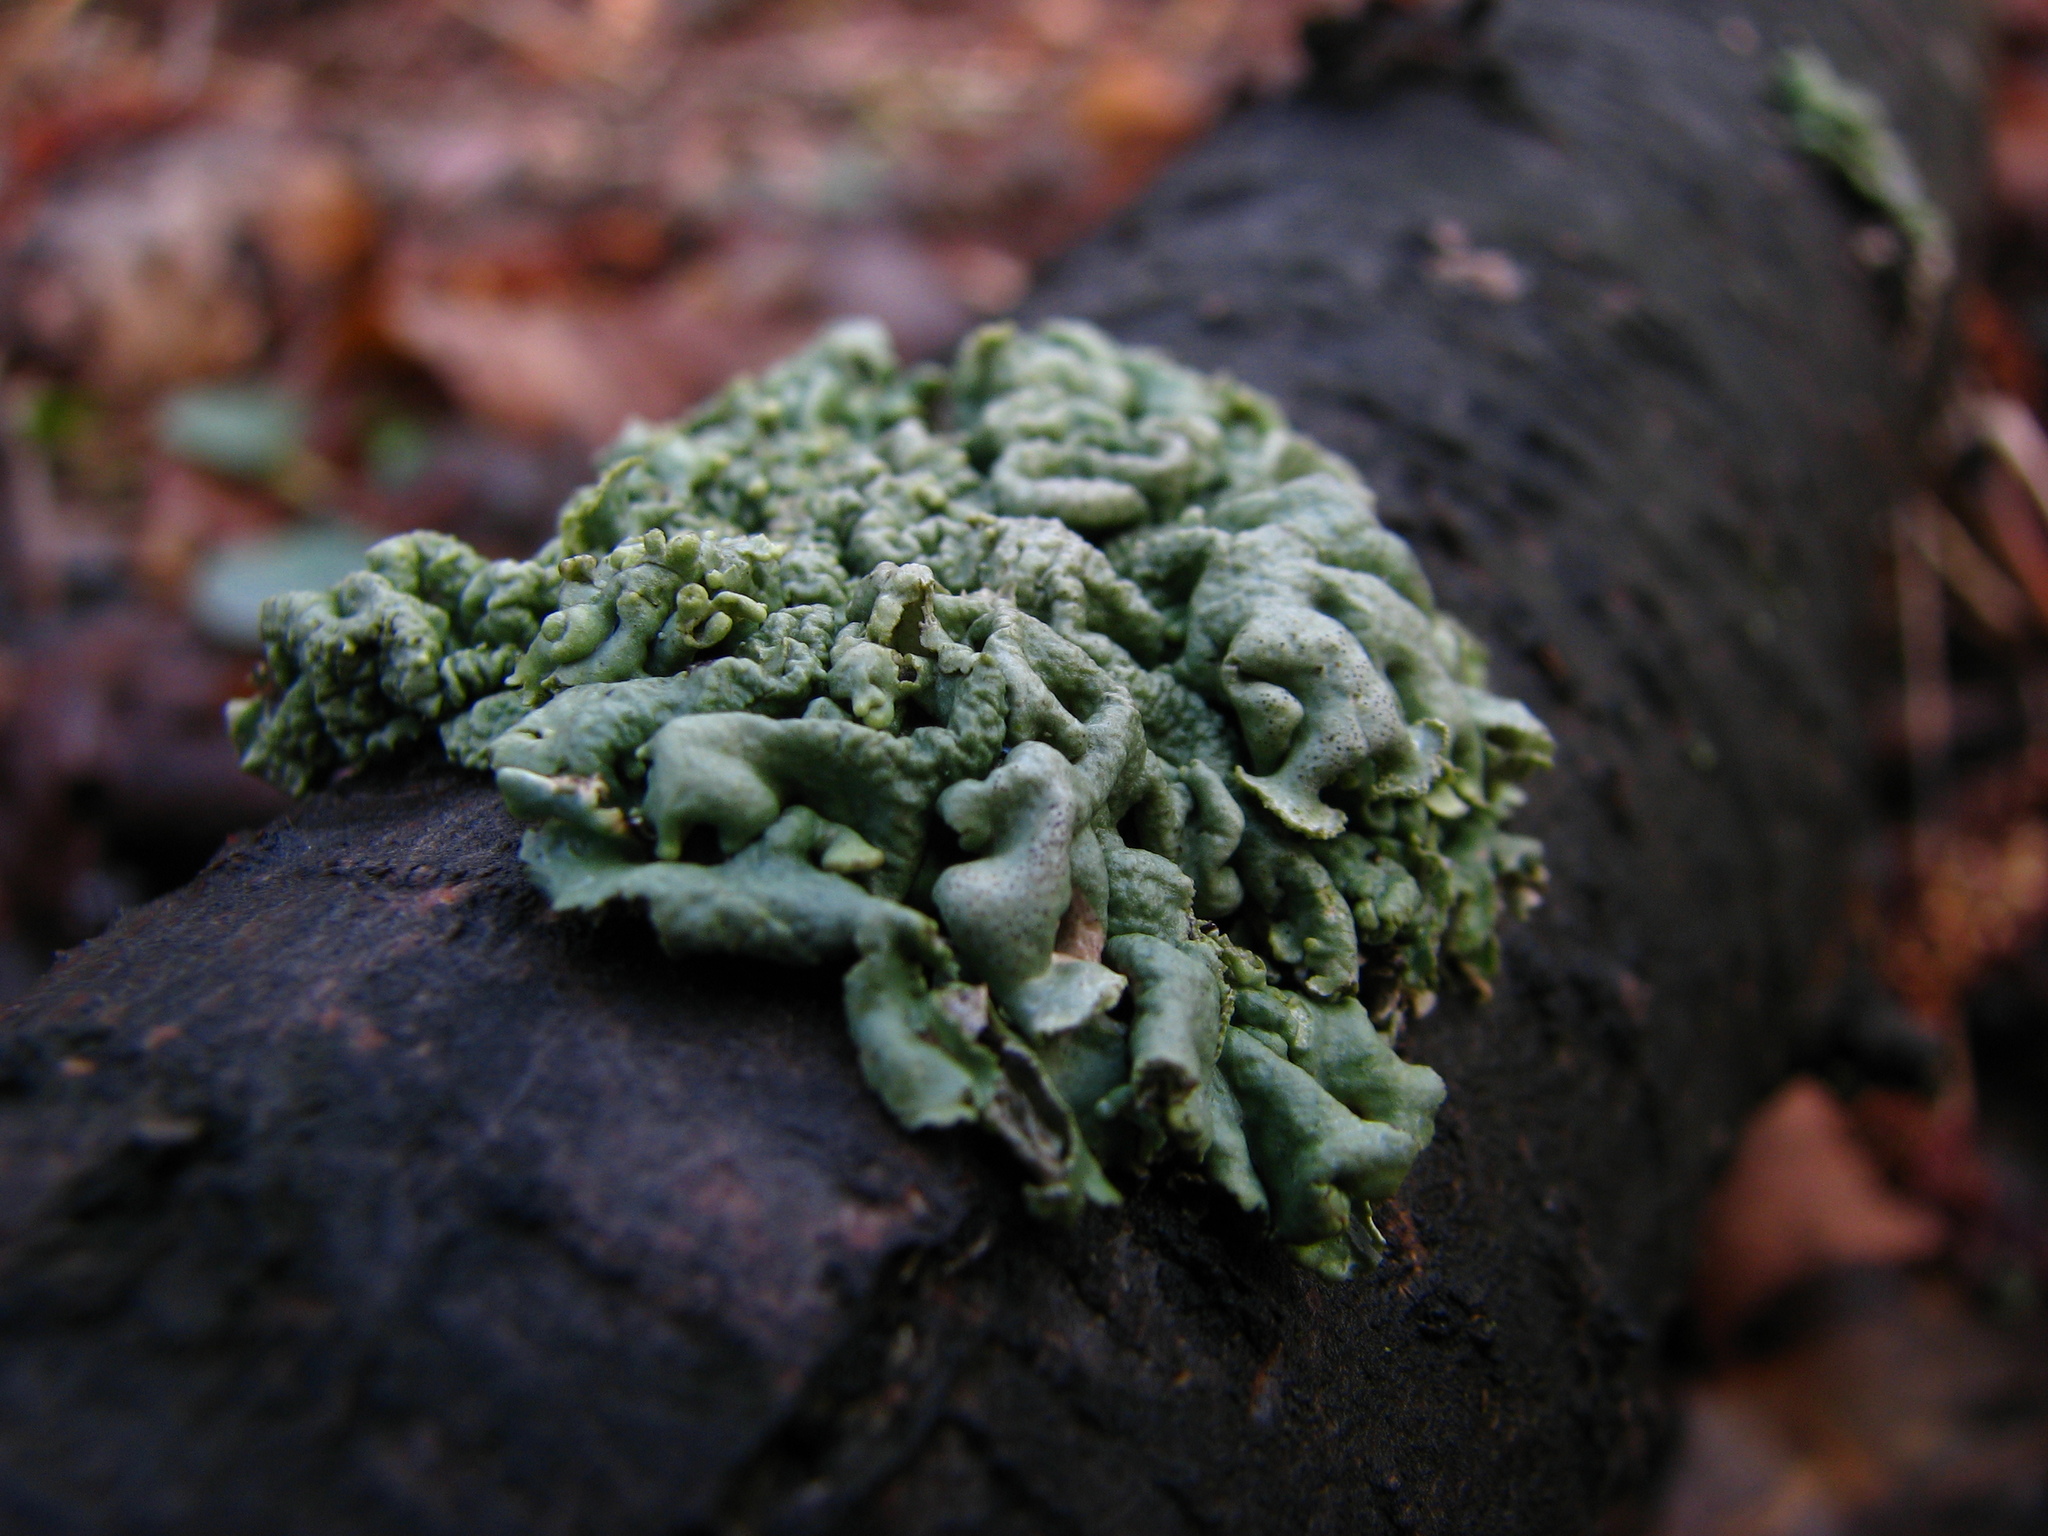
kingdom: Fungi
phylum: Ascomycota
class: Lecanoromycetes
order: Lecanorales
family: Parmeliaceae
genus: Hypogymnia
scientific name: Hypogymnia physodes
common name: Dark crottle
